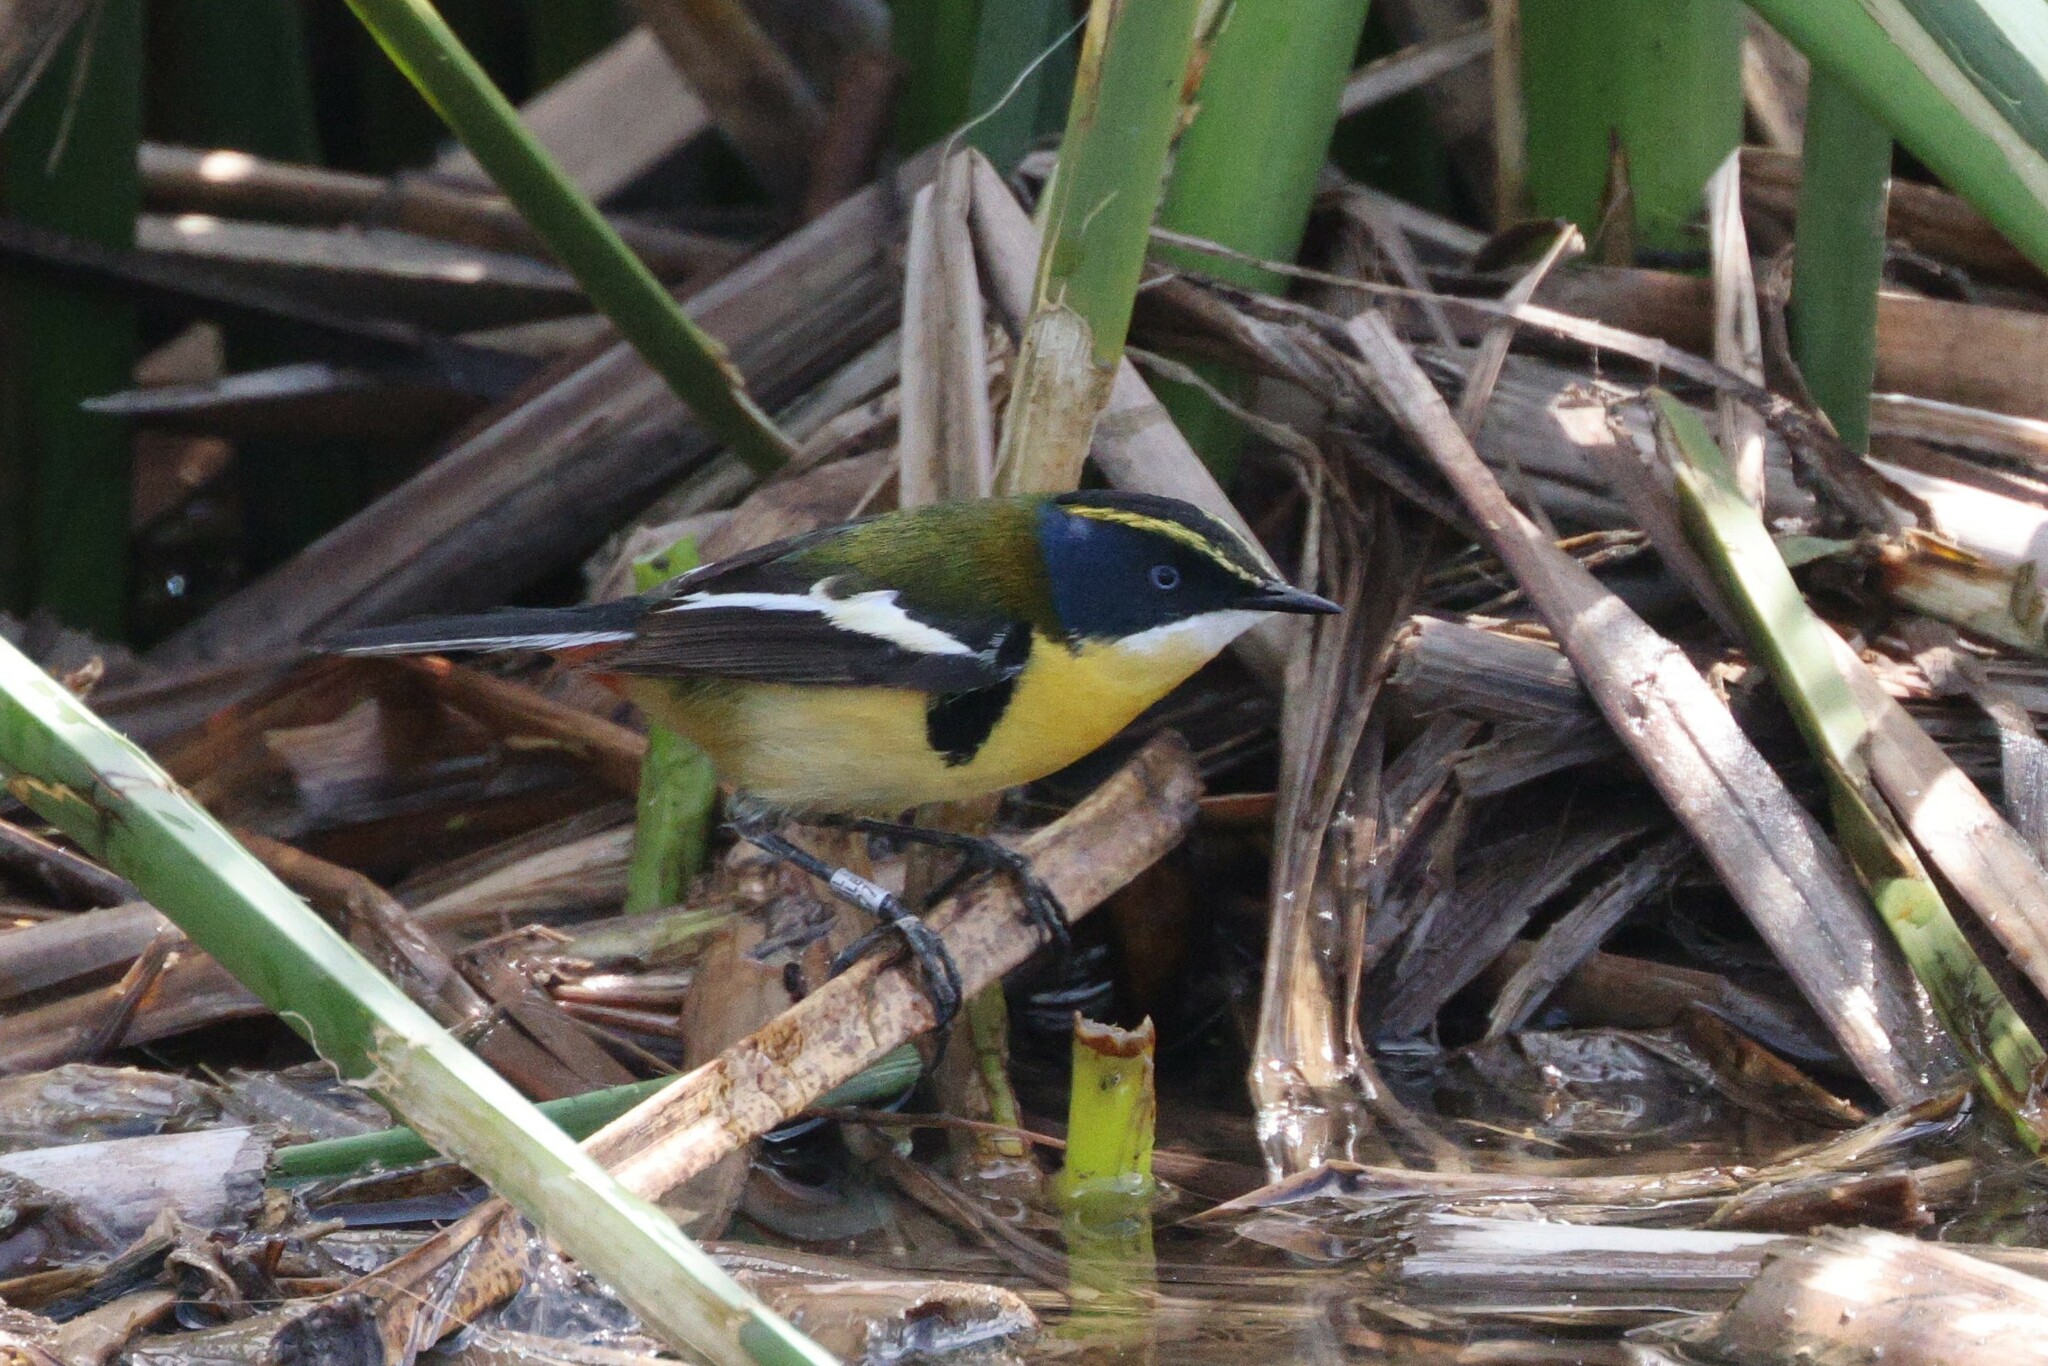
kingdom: Animalia
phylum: Chordata
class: Aves
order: Passeriformes
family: Tyrannidae
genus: Tachuris
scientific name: Tachuris rubrigastra
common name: Many-colored rush tyrant
